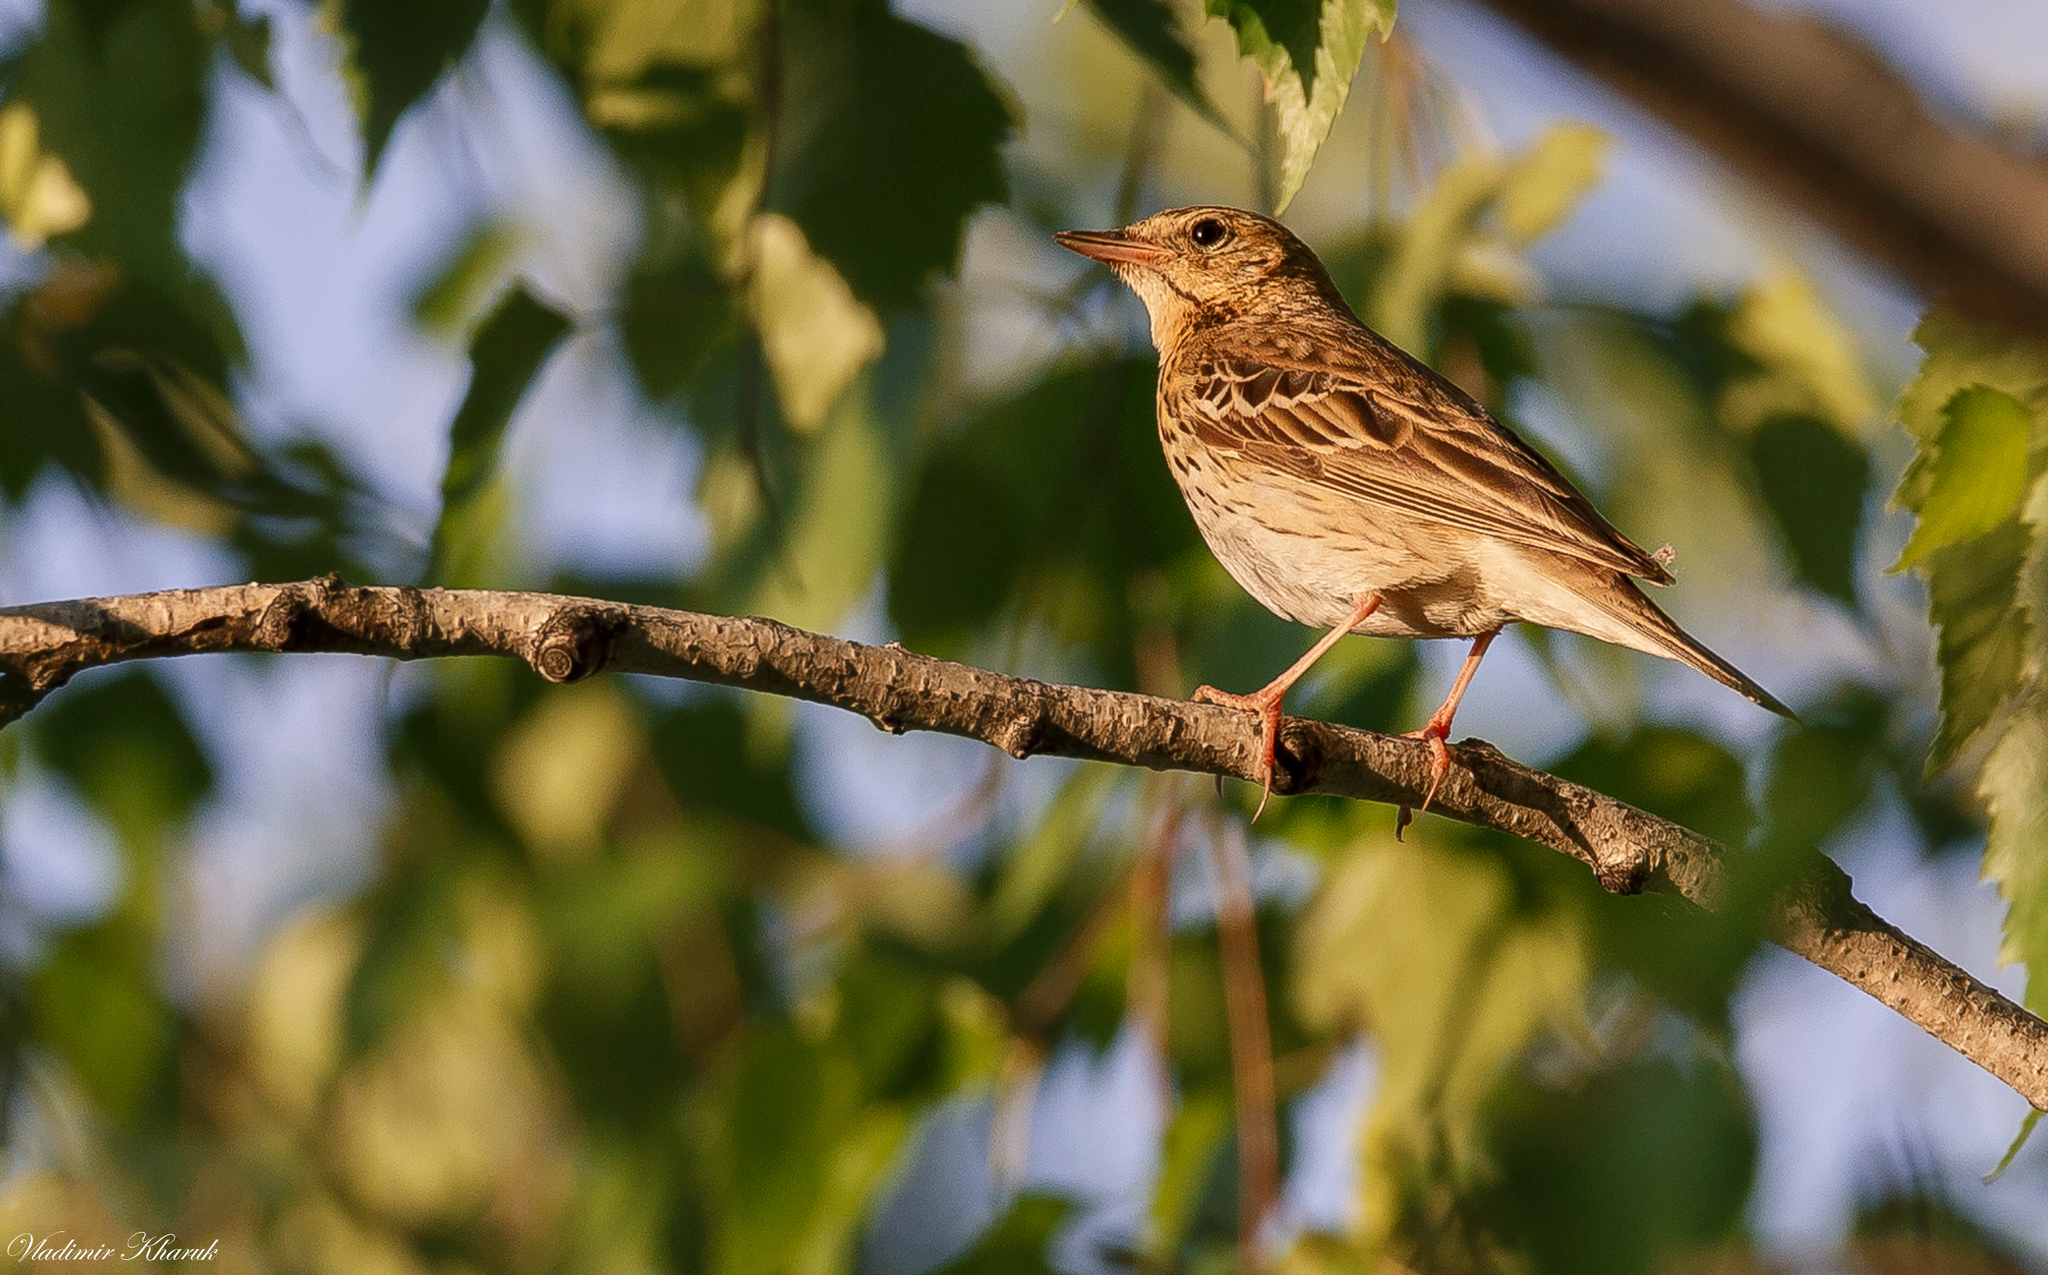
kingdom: Animalia
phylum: Chordata
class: Aves
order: Passeriformes
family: Motacillidae
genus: Anthus
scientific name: Anthus trivialis
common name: Tree pipit
